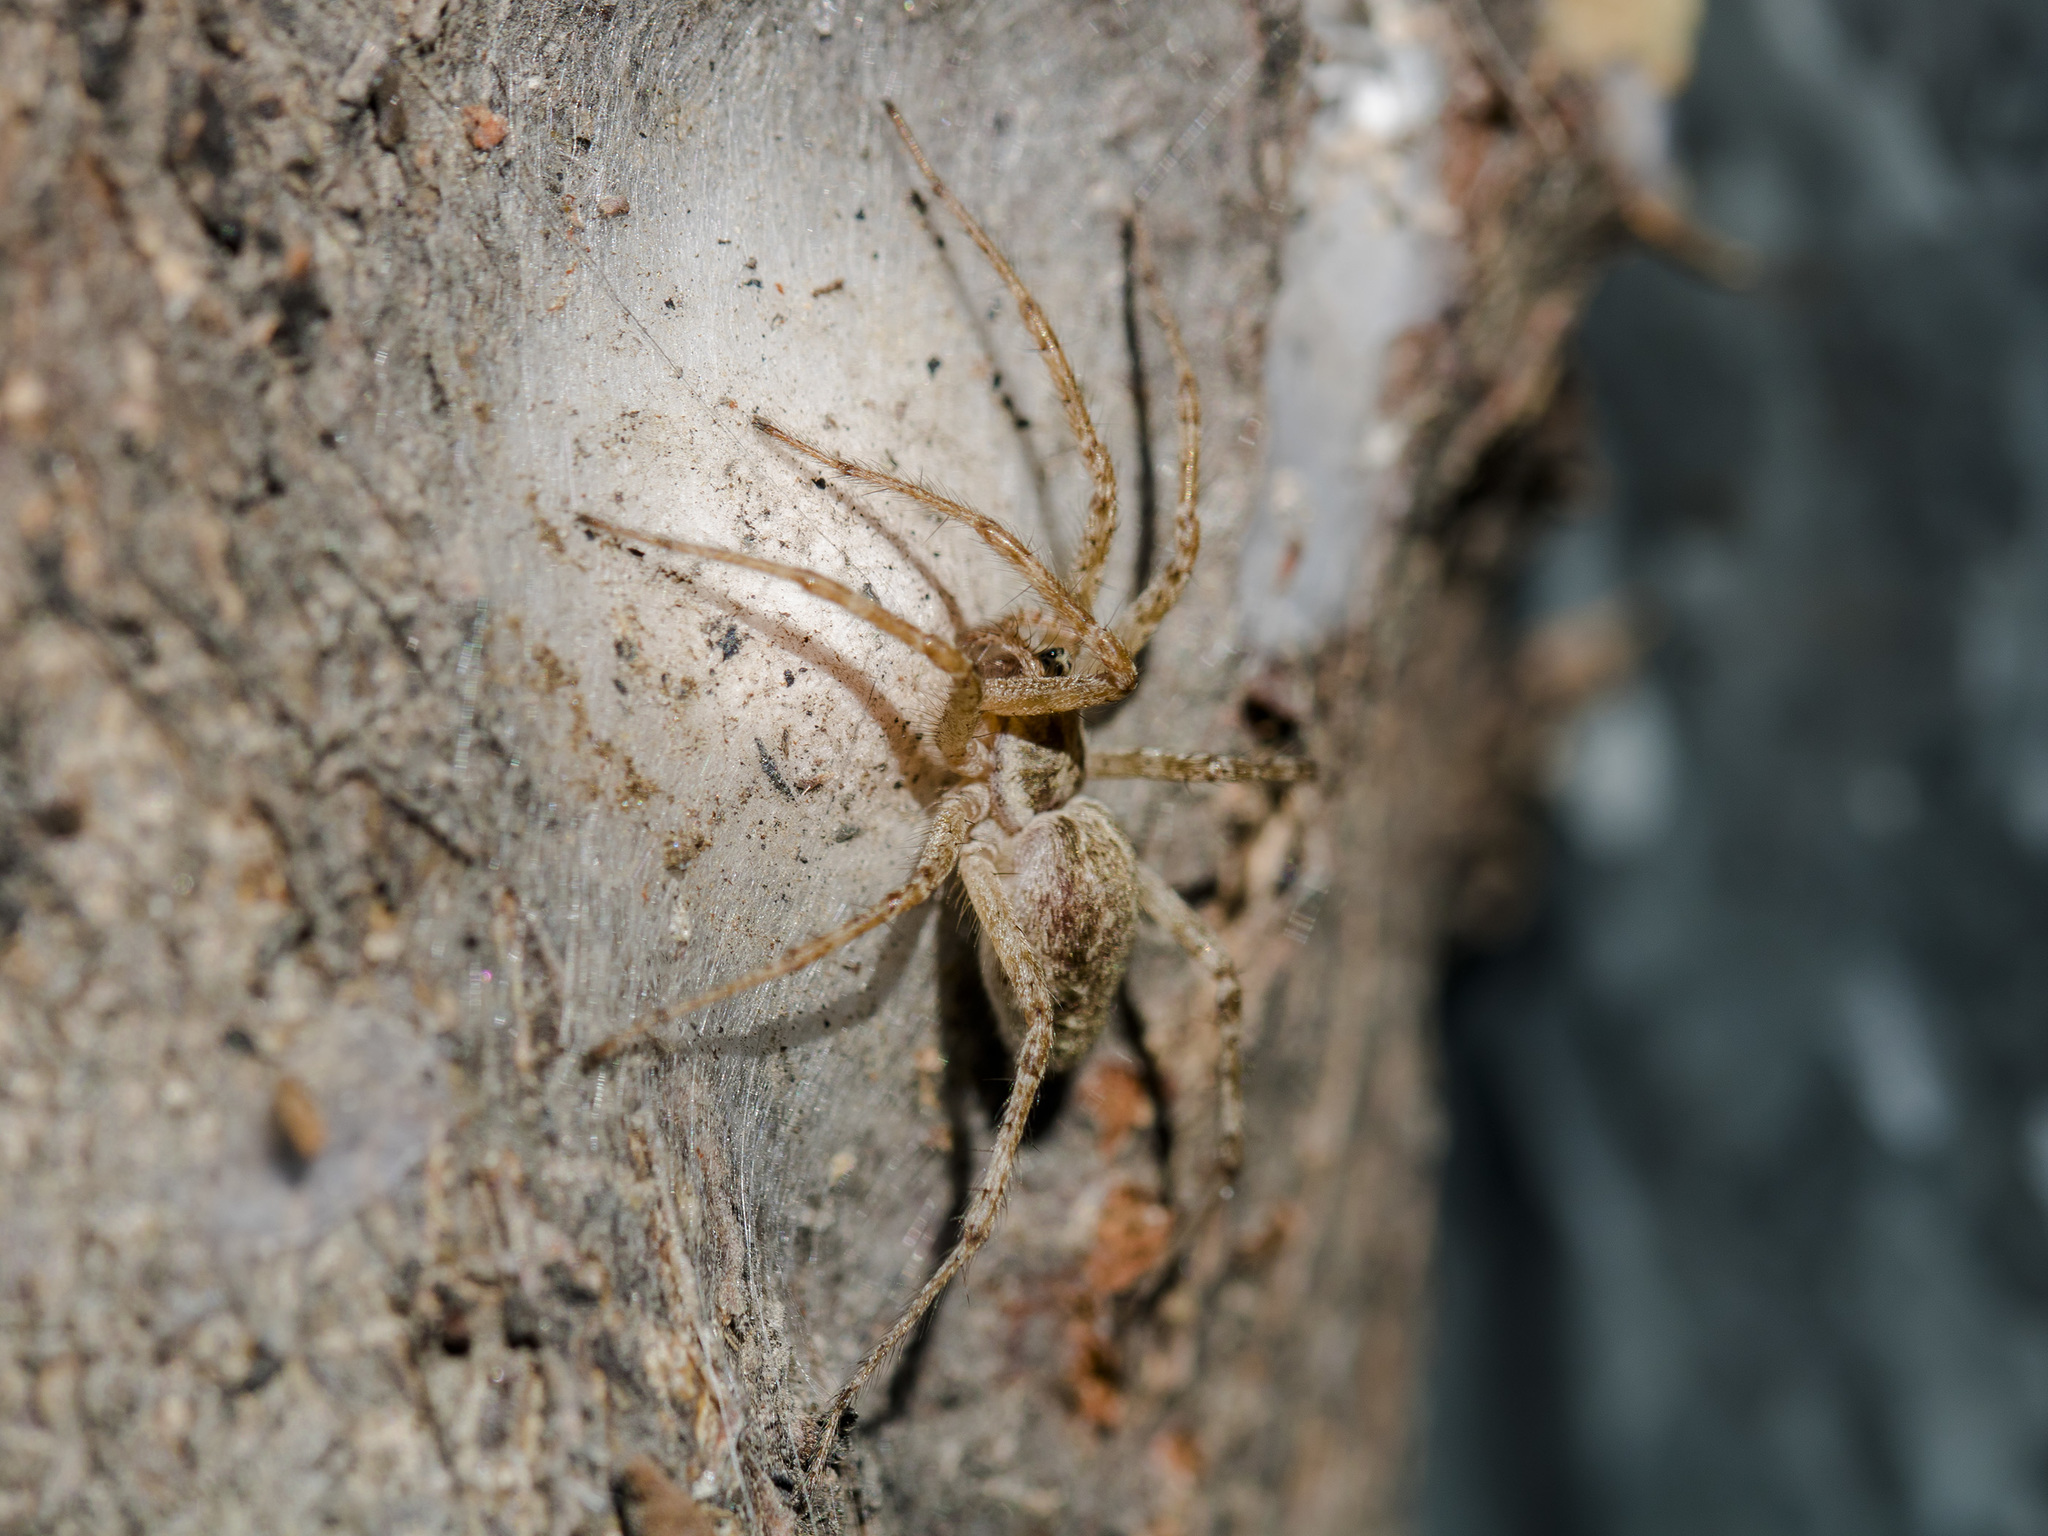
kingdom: Animalia
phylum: Arthropoda
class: Arachnida
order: Araneae
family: Agelenidae
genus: Allagelena
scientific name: Allagelena gracilens
